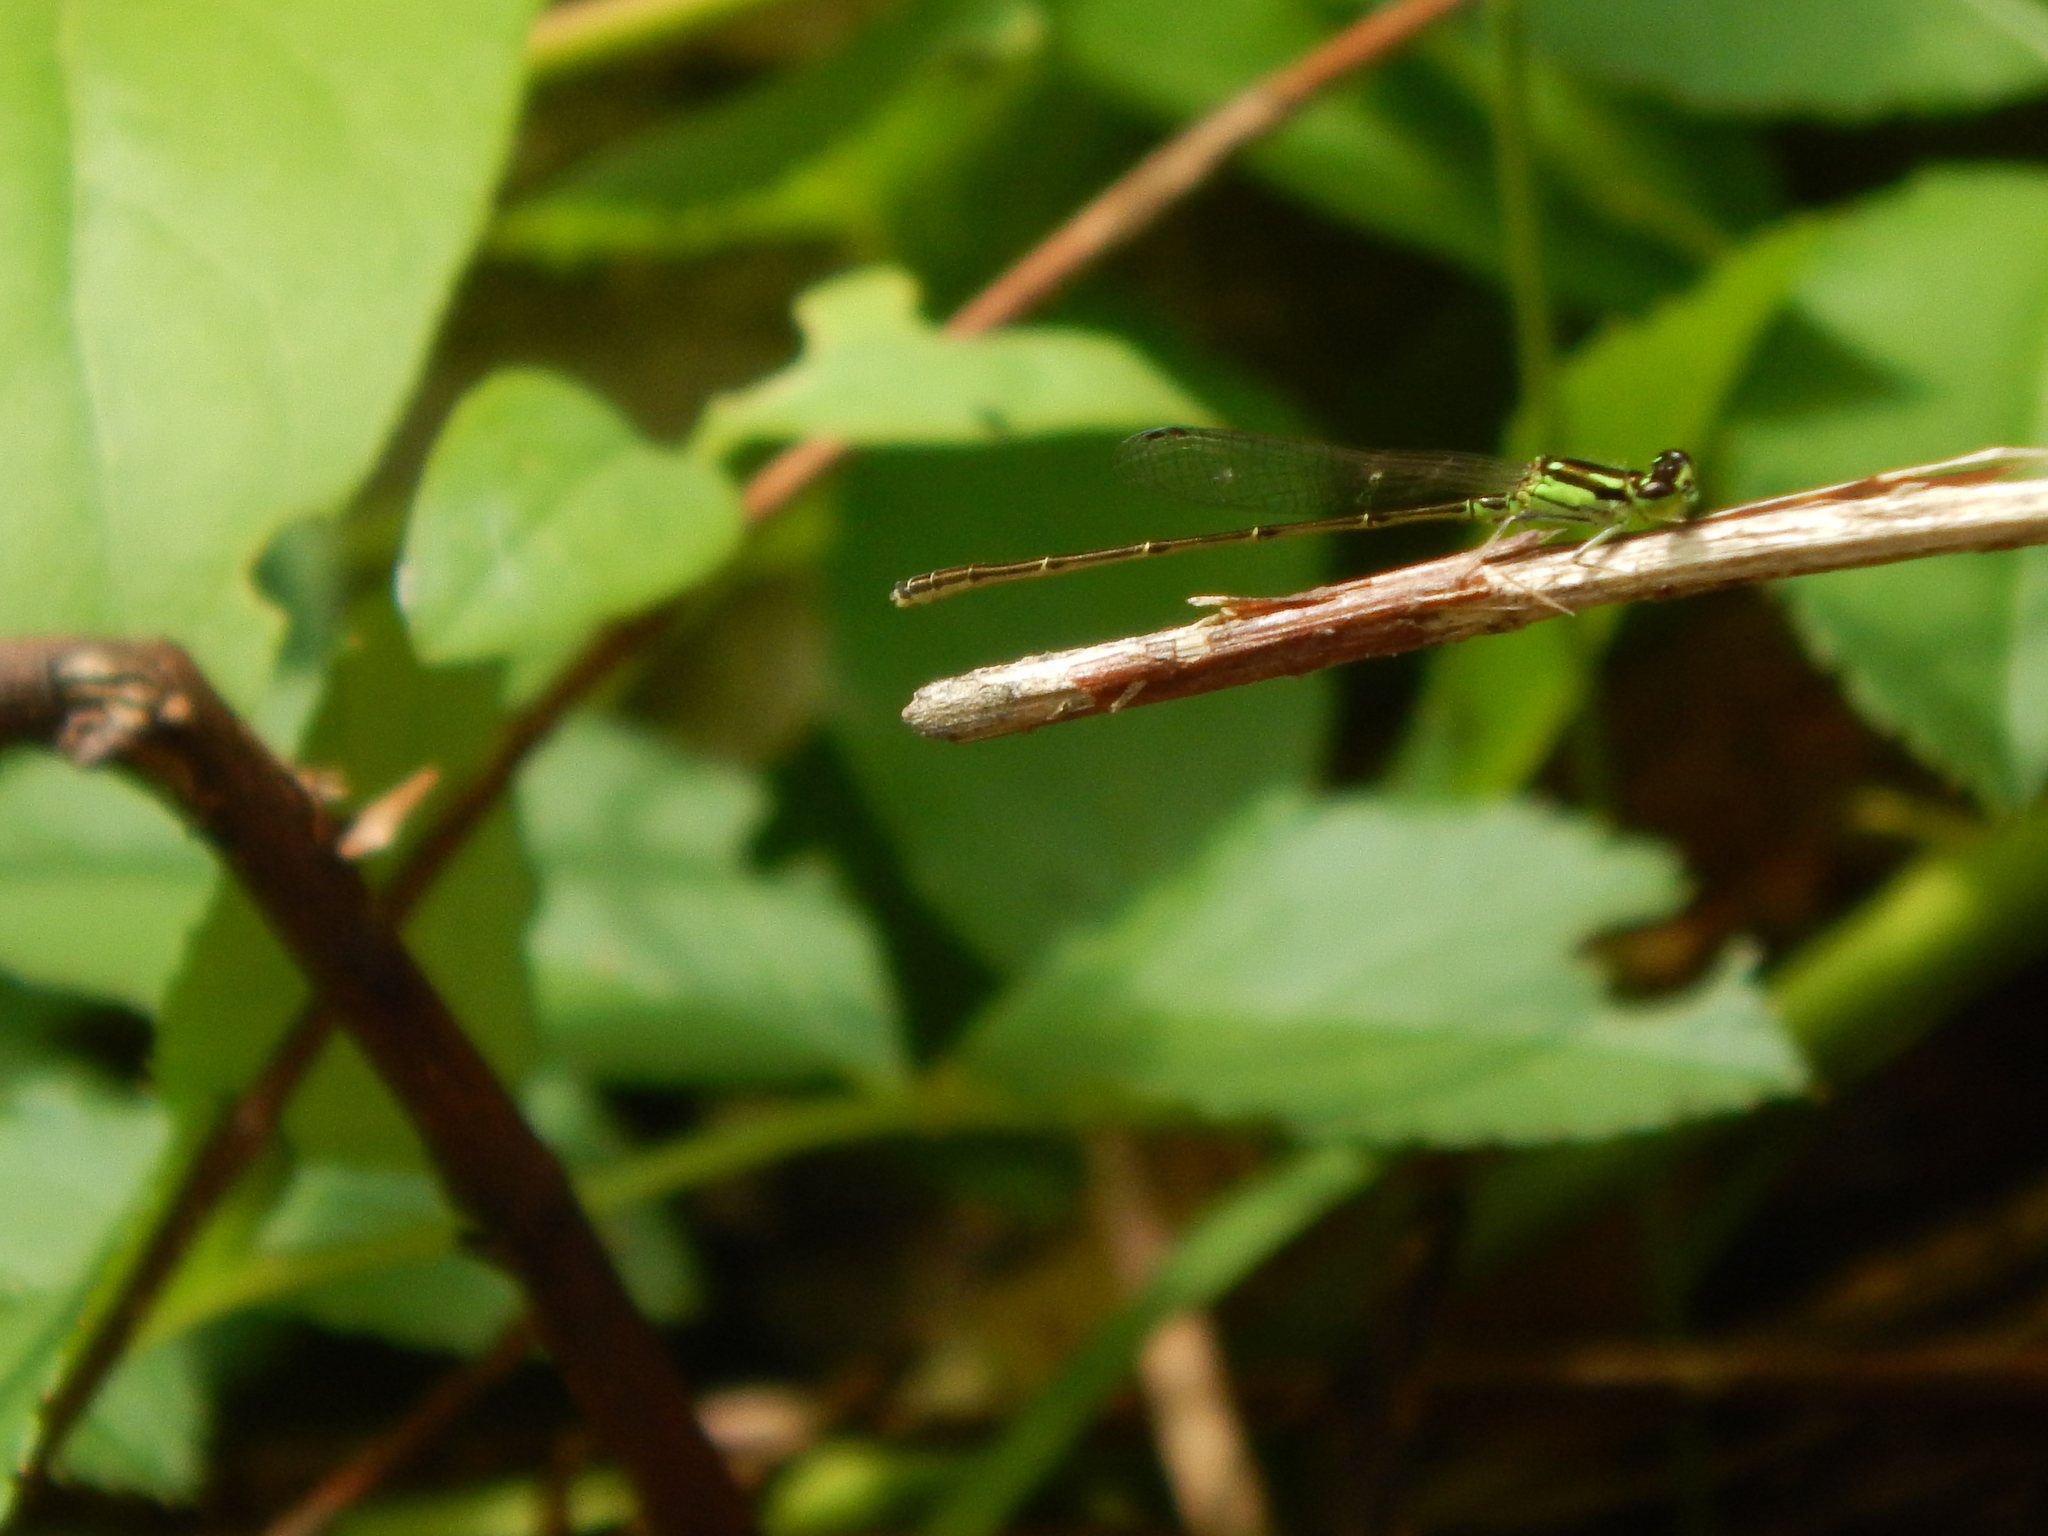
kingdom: Animalia
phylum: Arthropoda
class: Insecta
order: Odonata
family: Coenagrionidae
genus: Ischnura
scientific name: Ischnura posita
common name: Fragile forktail
